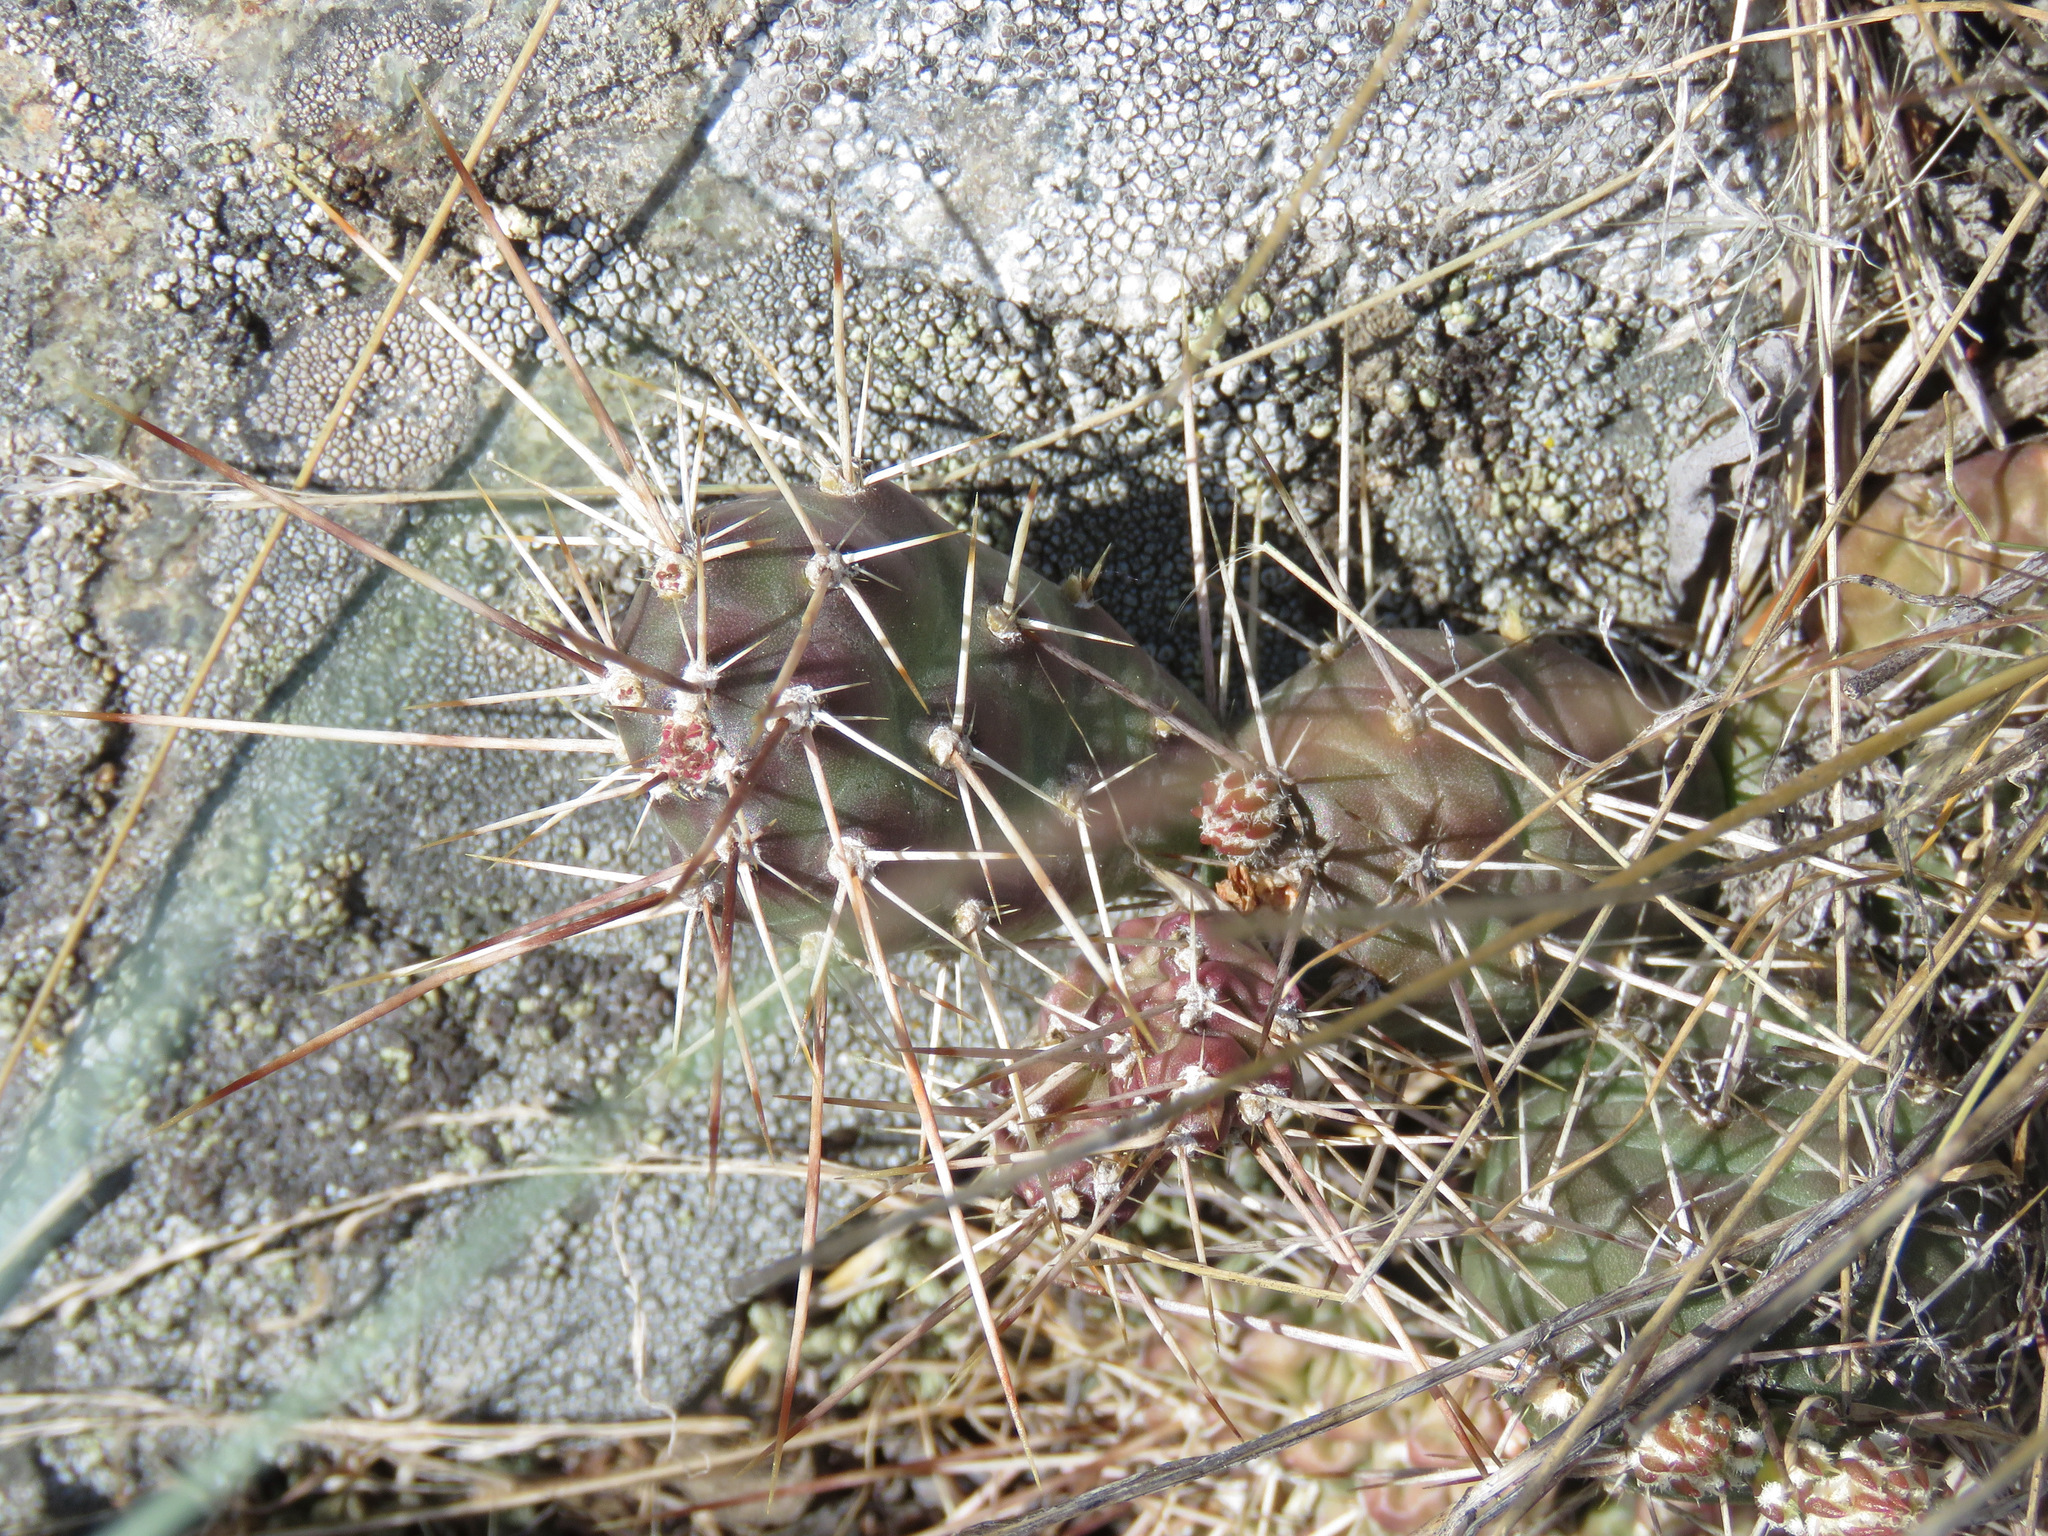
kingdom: Plantae
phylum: Tracheophyta
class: Magnoliopsida
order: Caryophyllales
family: Cactaceae
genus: Opuntia
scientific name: Opuntia fragilis
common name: Brittle cactus
